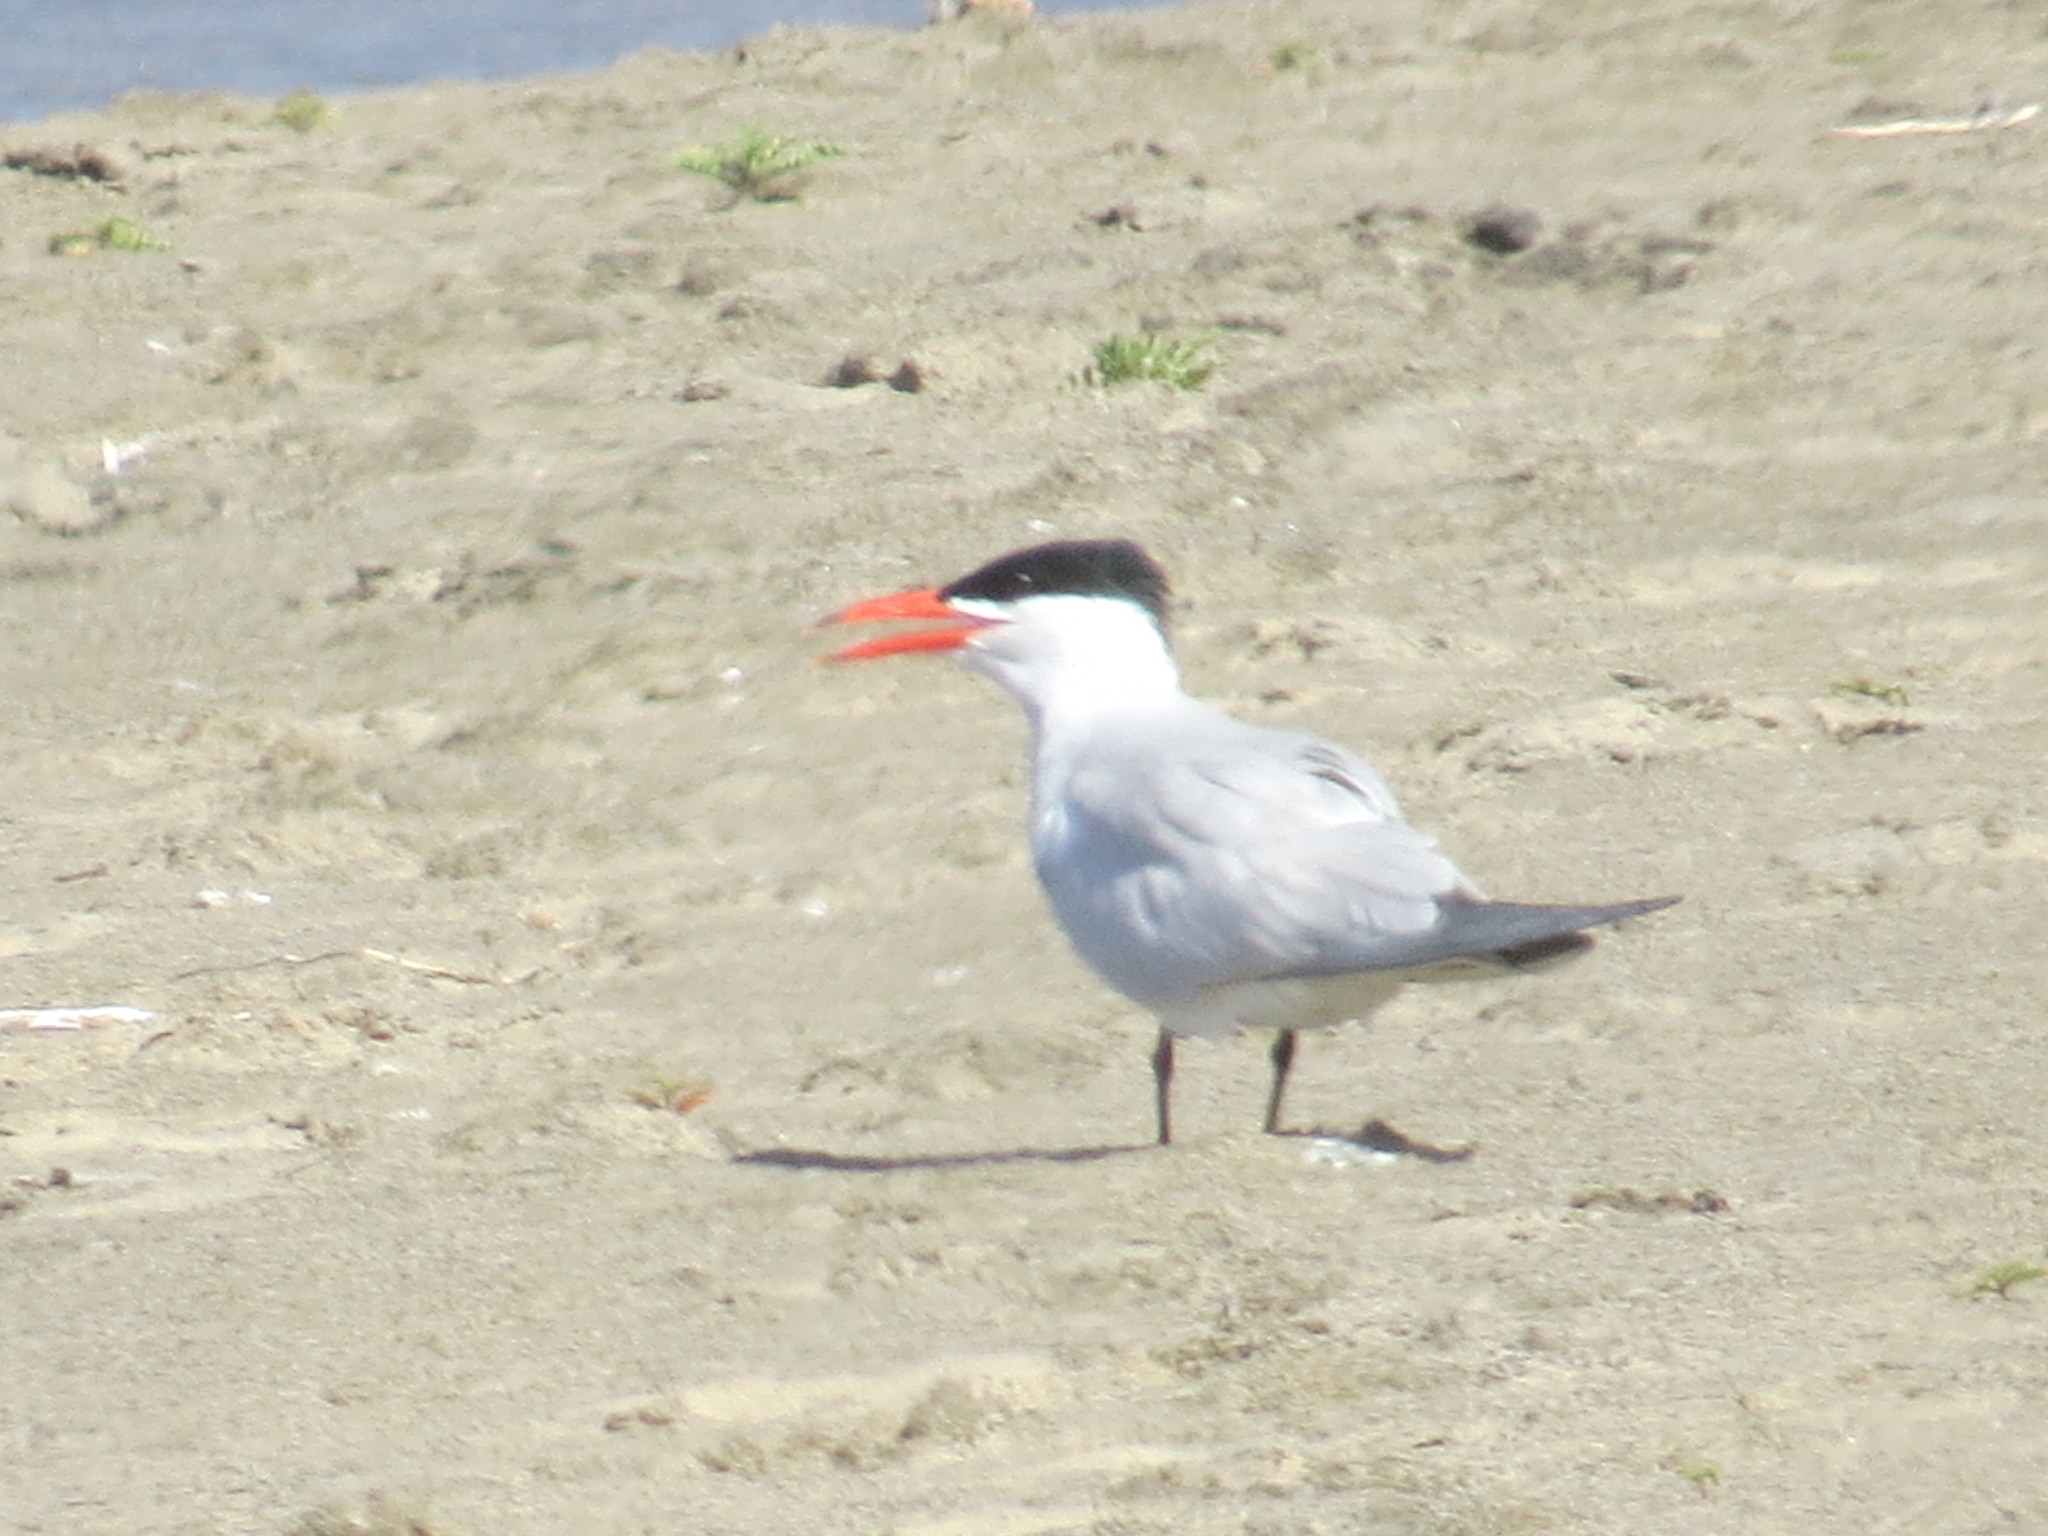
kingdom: Animalia
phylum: Chordata
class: Aves
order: Charadriiformes
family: Laridae
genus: Hydroprogne
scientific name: Hydroprogne caspia
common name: Caspian tern
